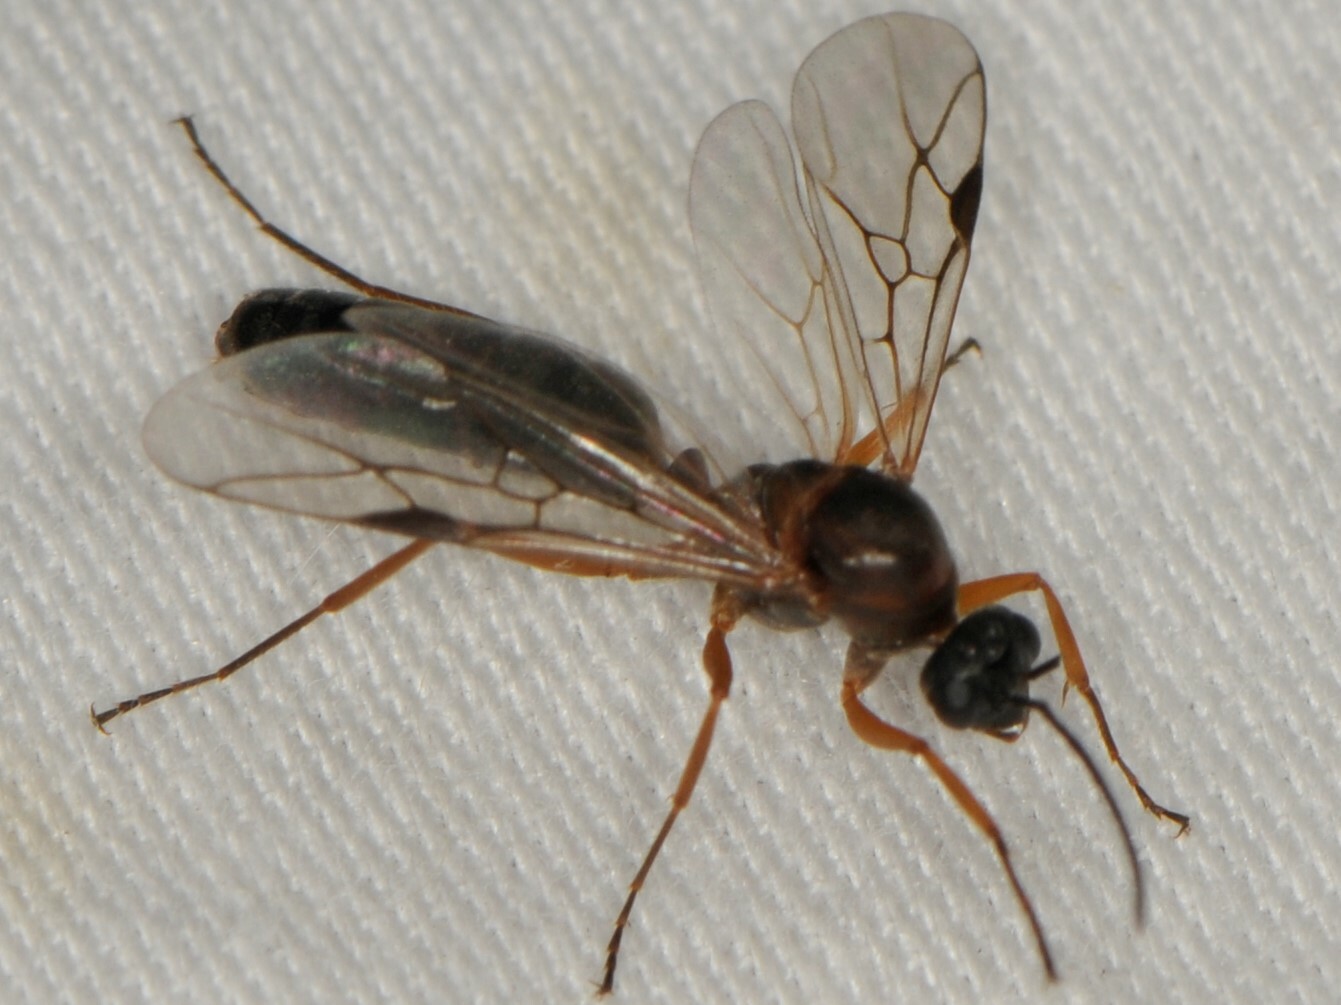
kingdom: Animalia
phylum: Arthropoda
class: Insecta
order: Hymenoptera
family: Formicidae
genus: Formica
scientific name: Formica
